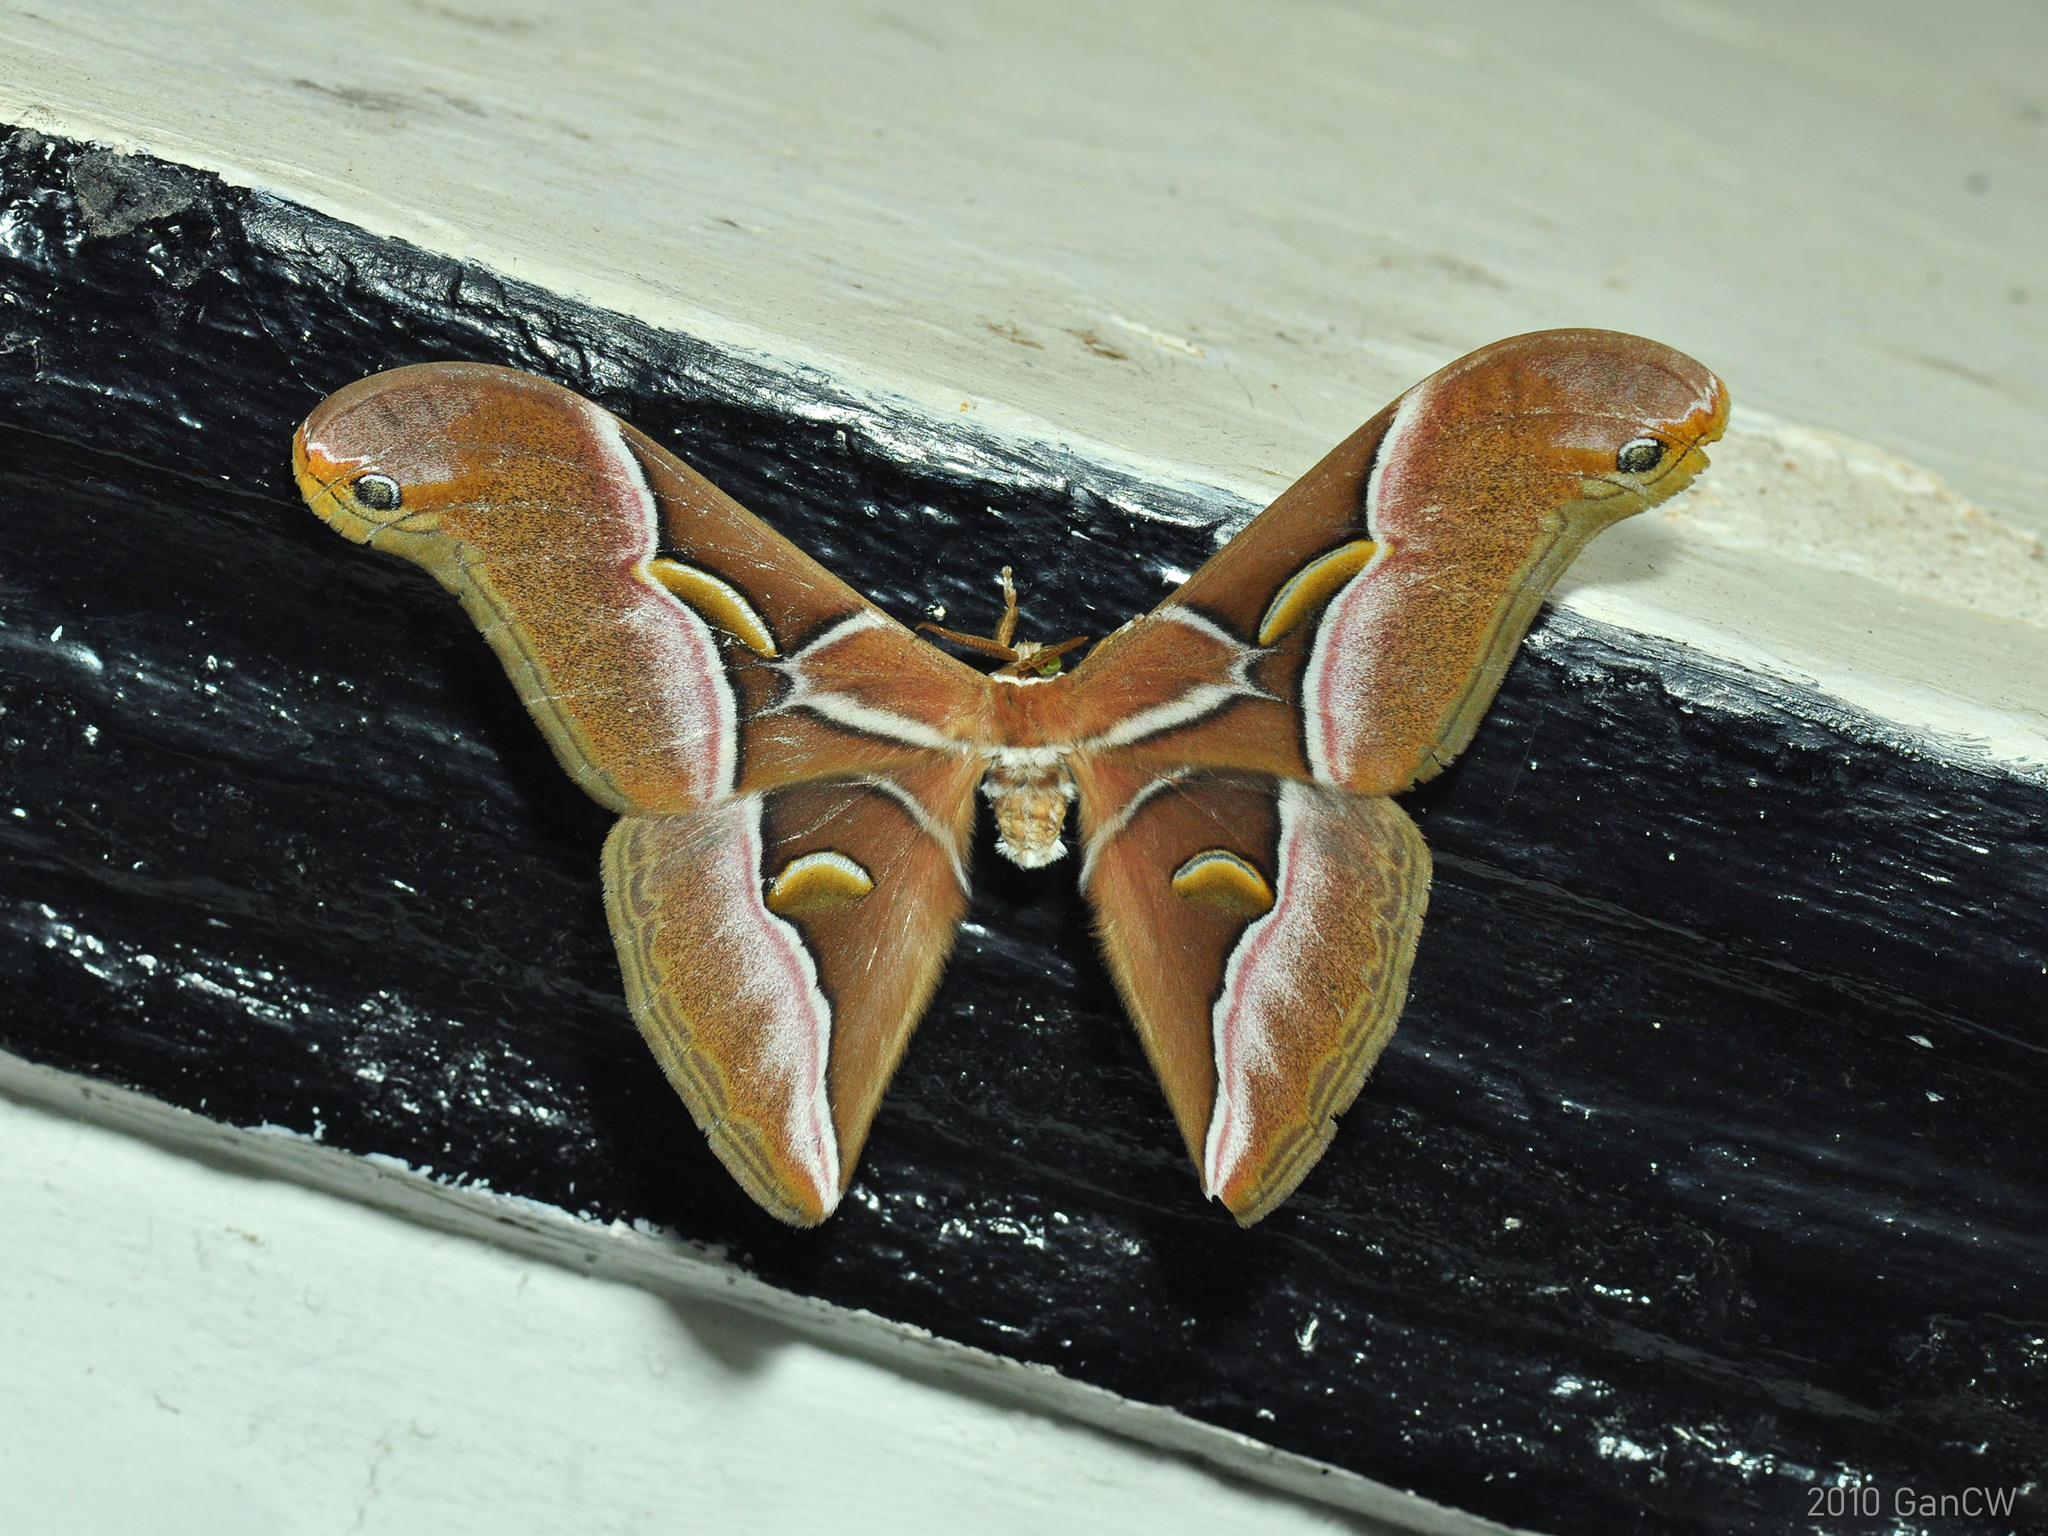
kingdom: Animalia
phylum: Arthropoda
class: Insecta
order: Lepidoptera
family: Saturniidae
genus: Samia
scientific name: Samia kohlli
